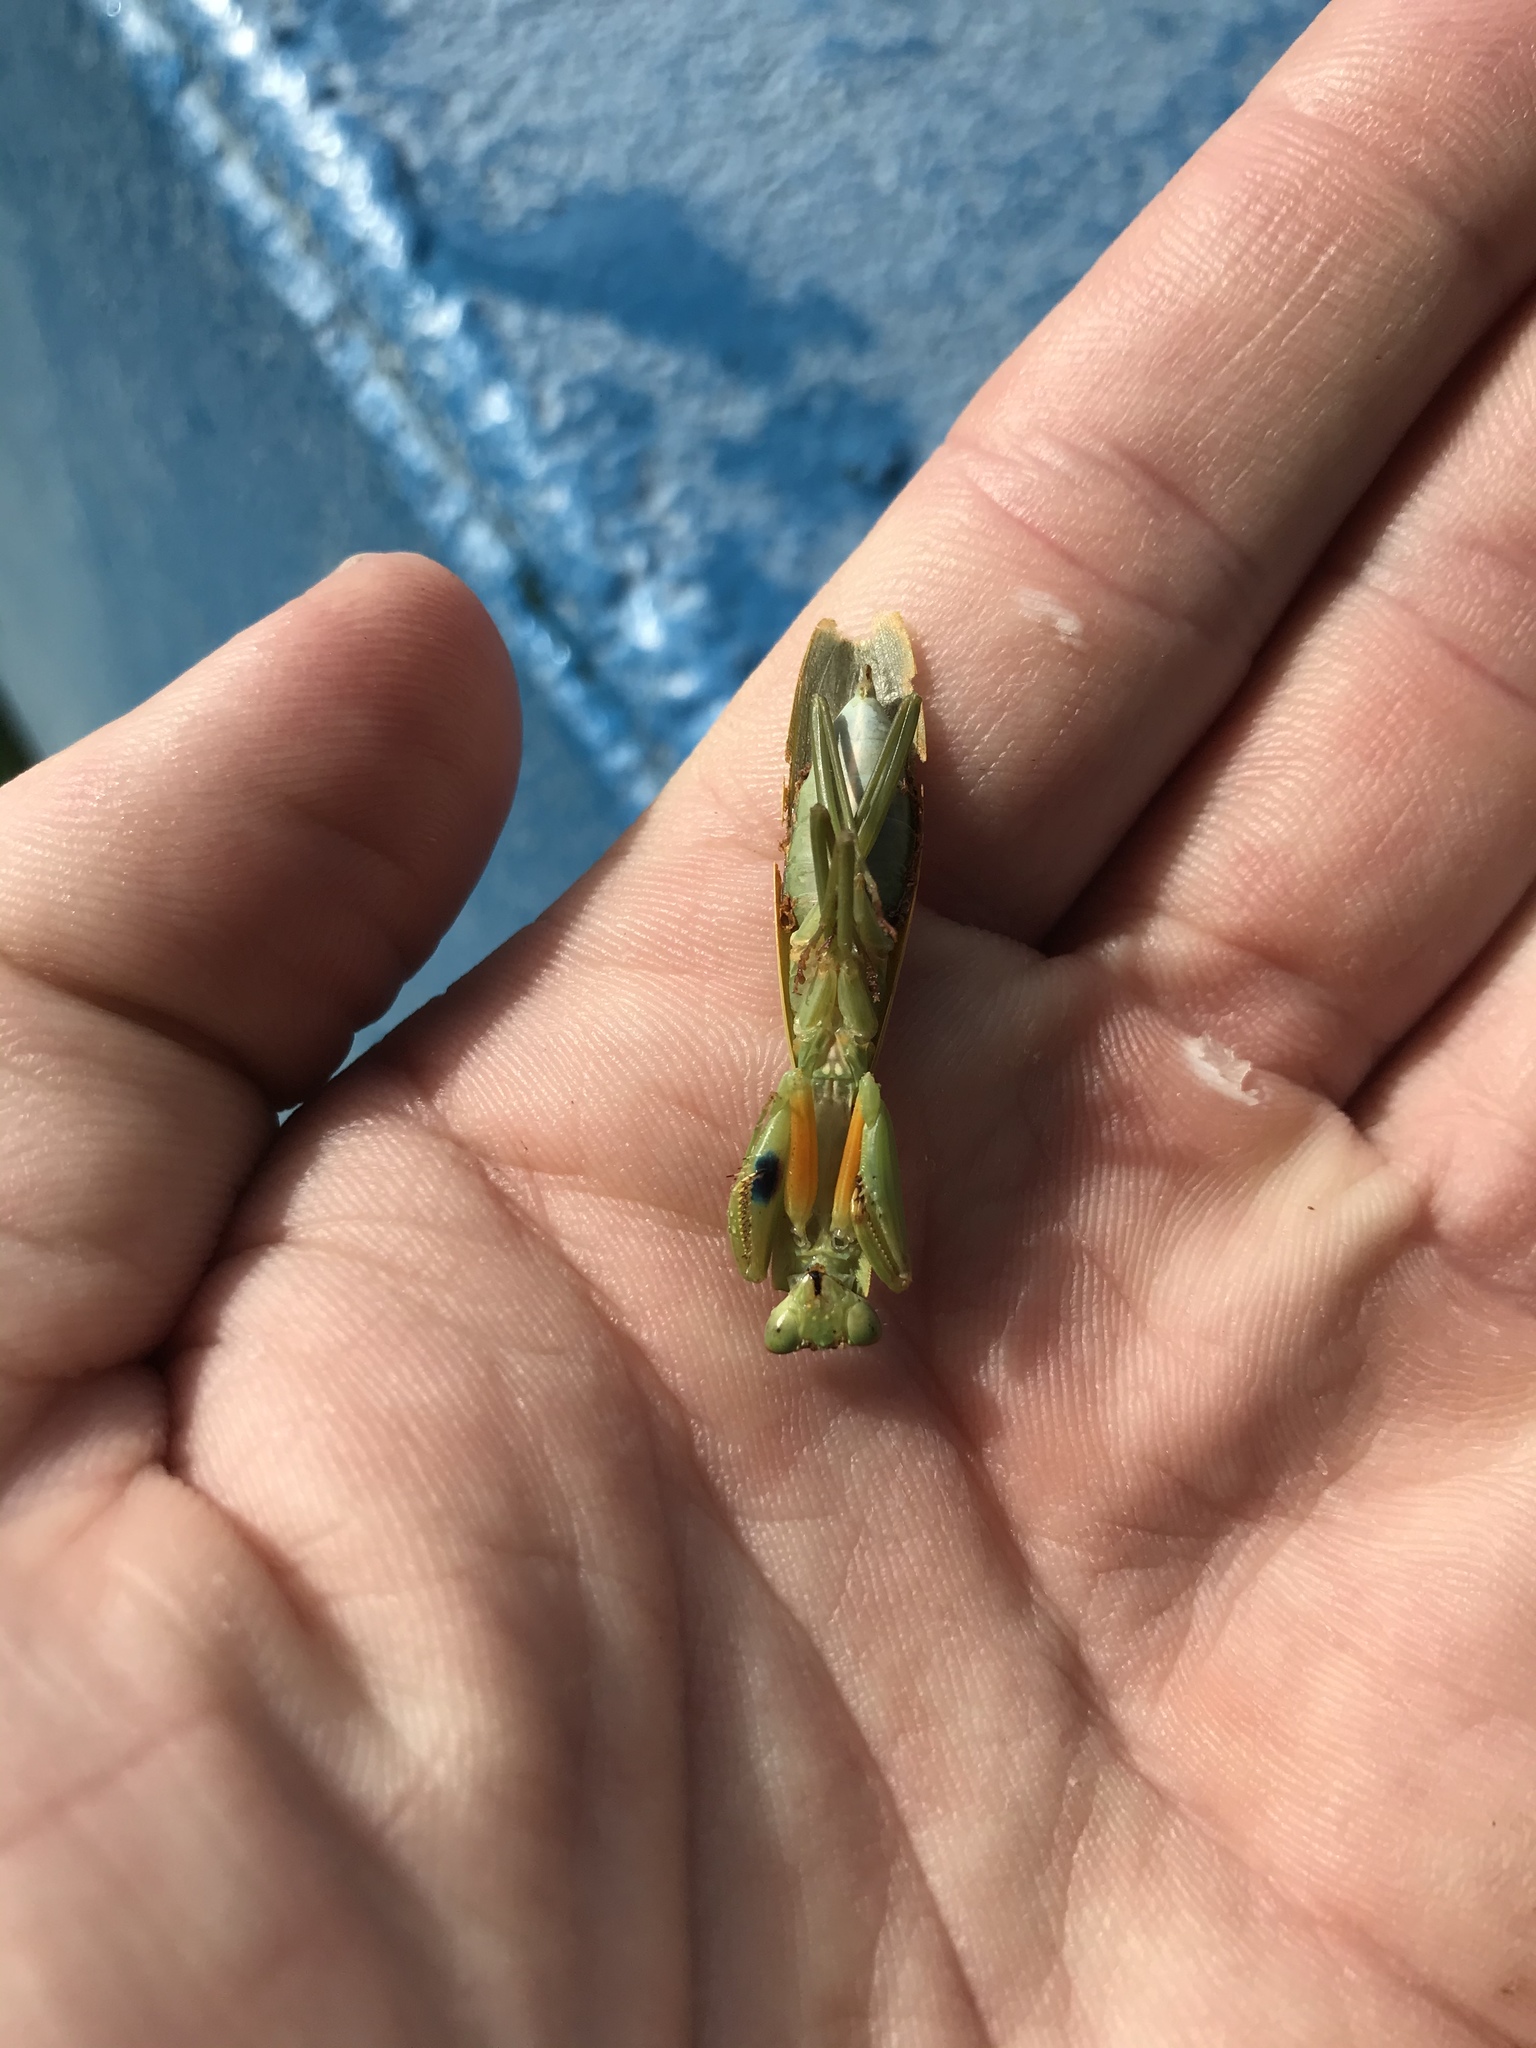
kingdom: Animalia
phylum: Arthropoda
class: Insecta
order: Mantodea
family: Mantidae
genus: Orthodera
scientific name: Orthodera novaezealandiae
